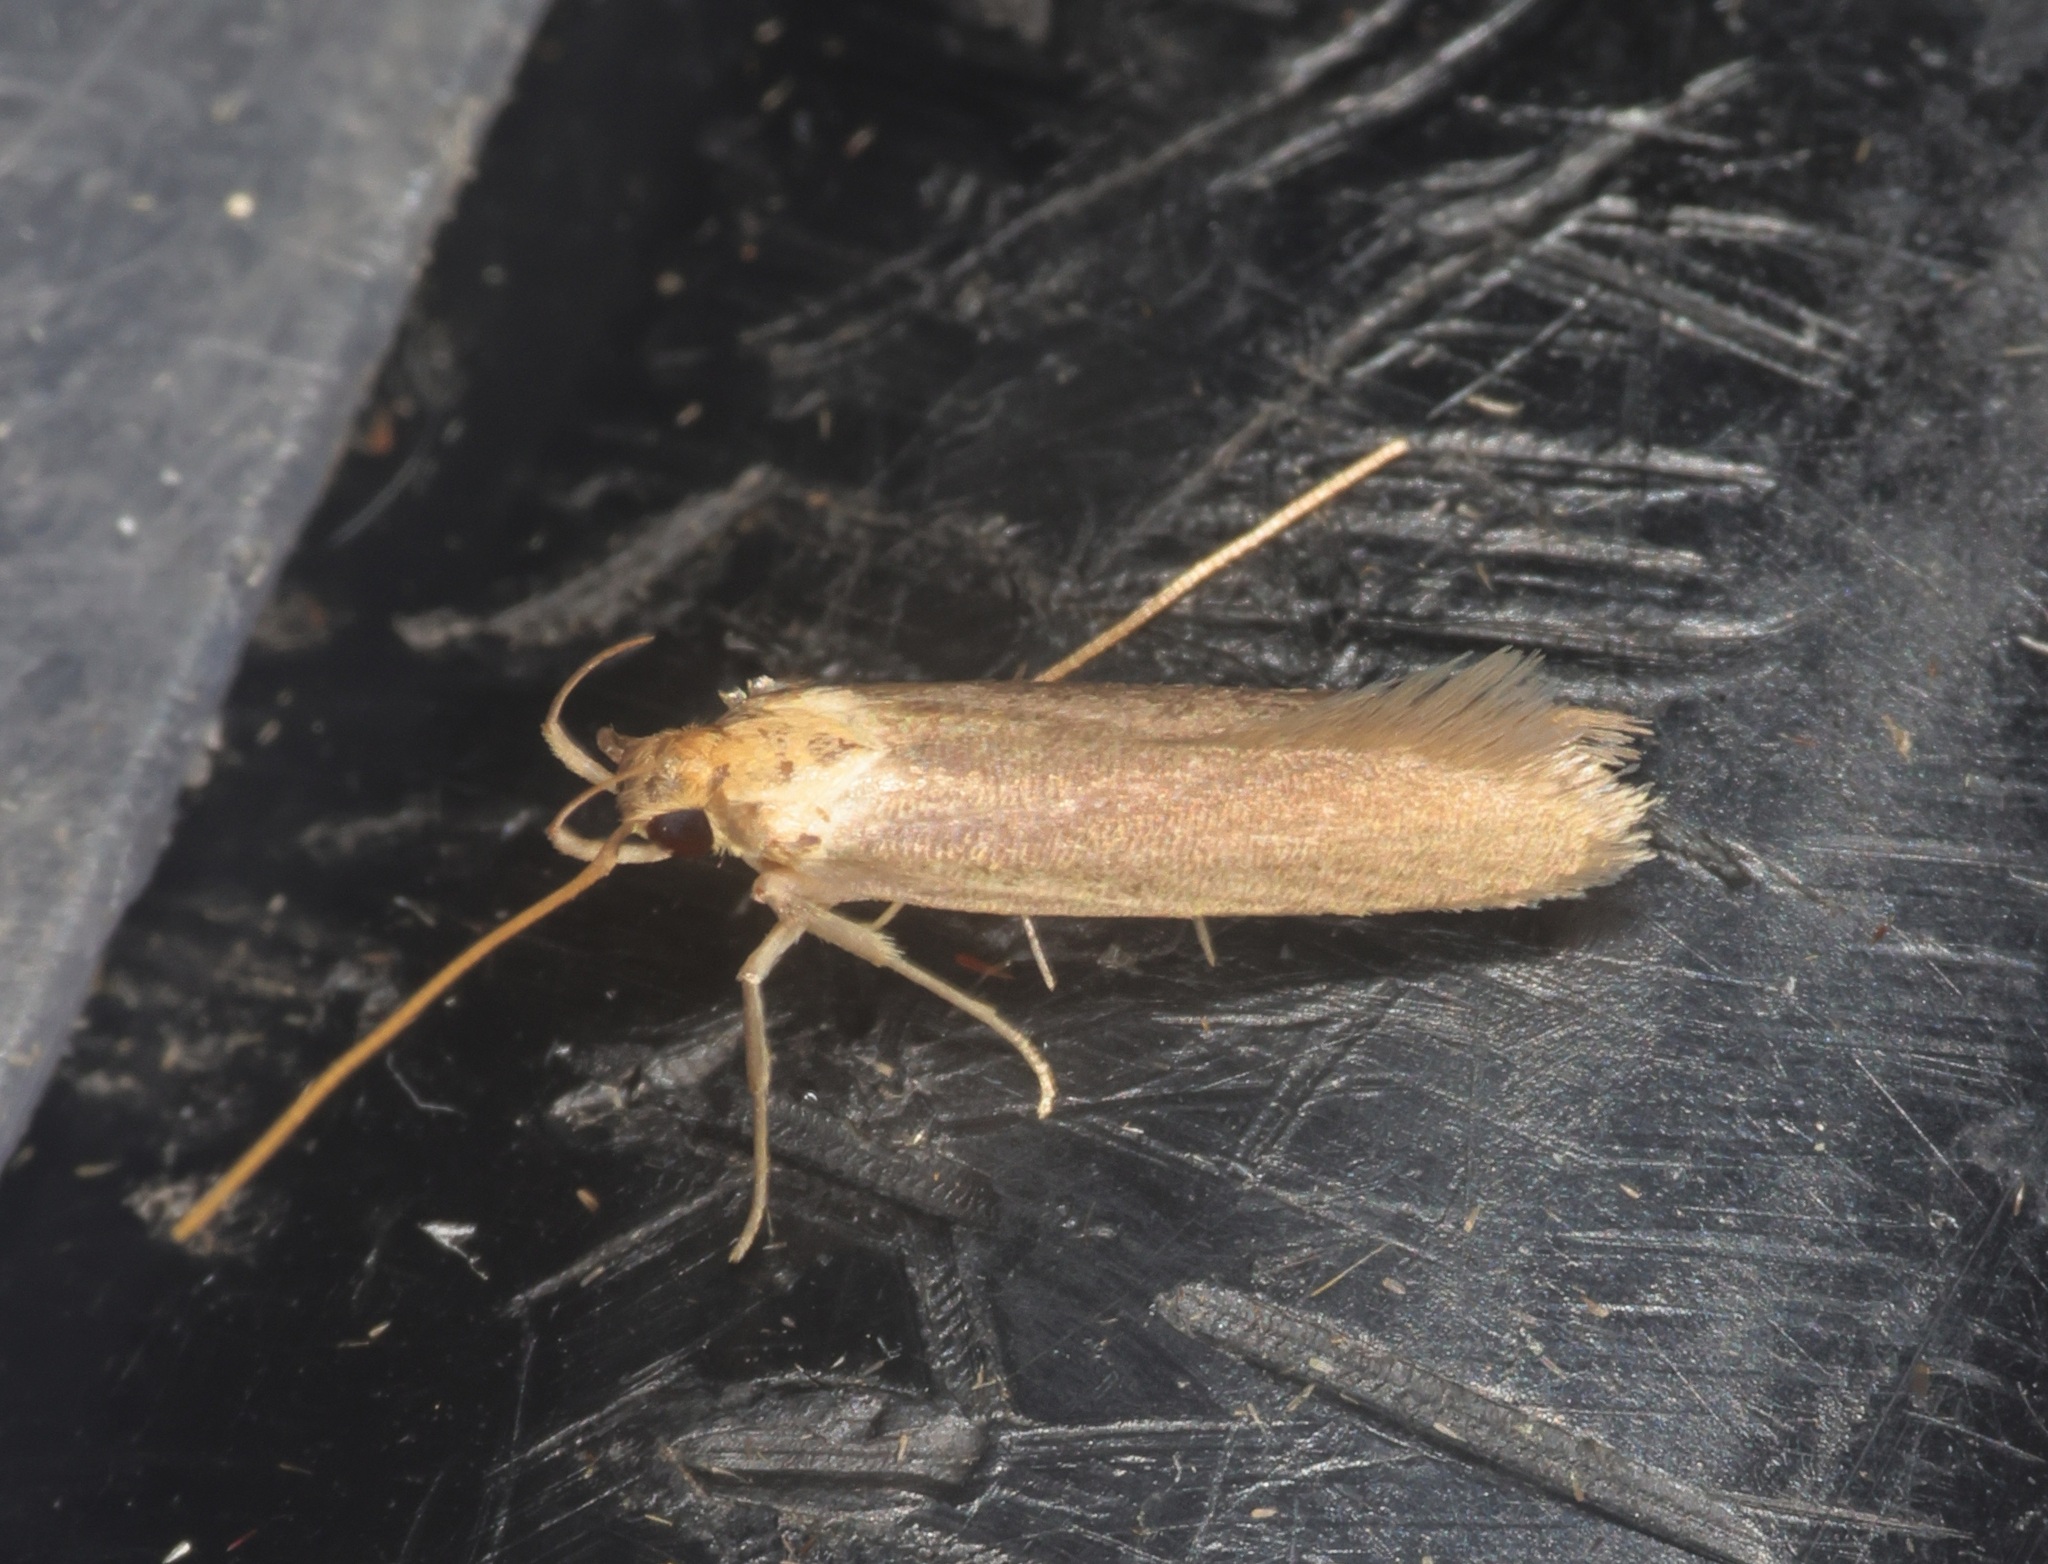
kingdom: Animalia
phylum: Arthropoda
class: Insecta
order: Lepidoptera
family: Lecithoceridae
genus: Tegenocharis
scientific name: Tegenocharis tenebrans
